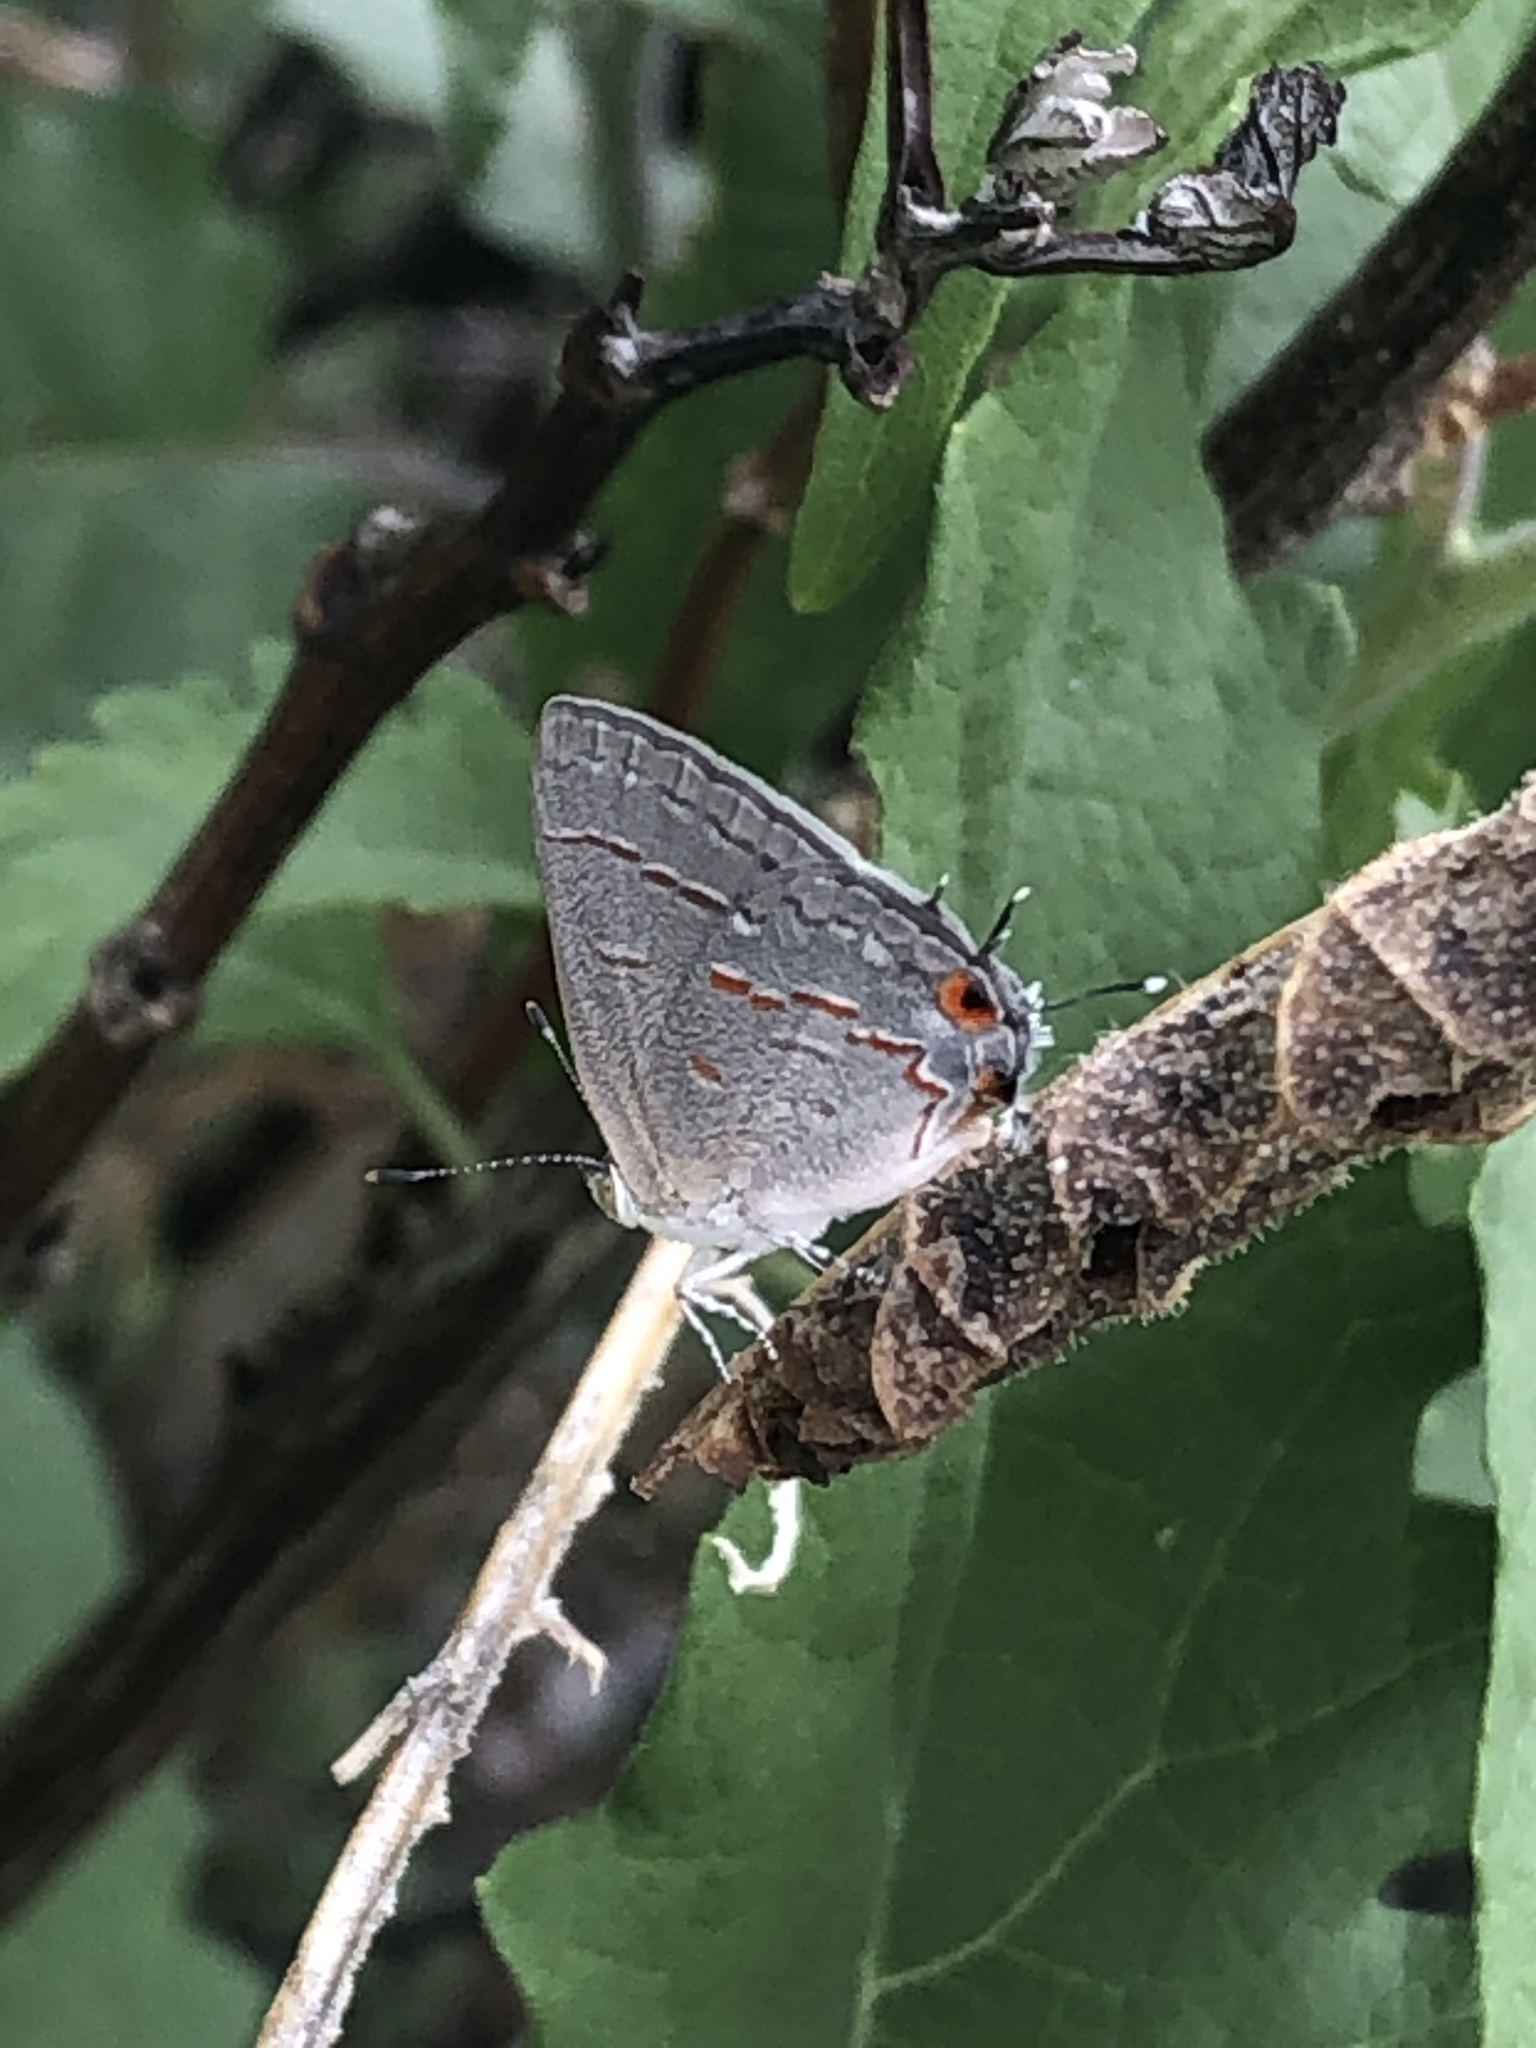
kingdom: Animalia
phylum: Arthropoda
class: Insecta
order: Lepidoptera
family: Lycaenidae
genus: Ministrymon
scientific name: Ministrymon leda
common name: Leda ministreak
